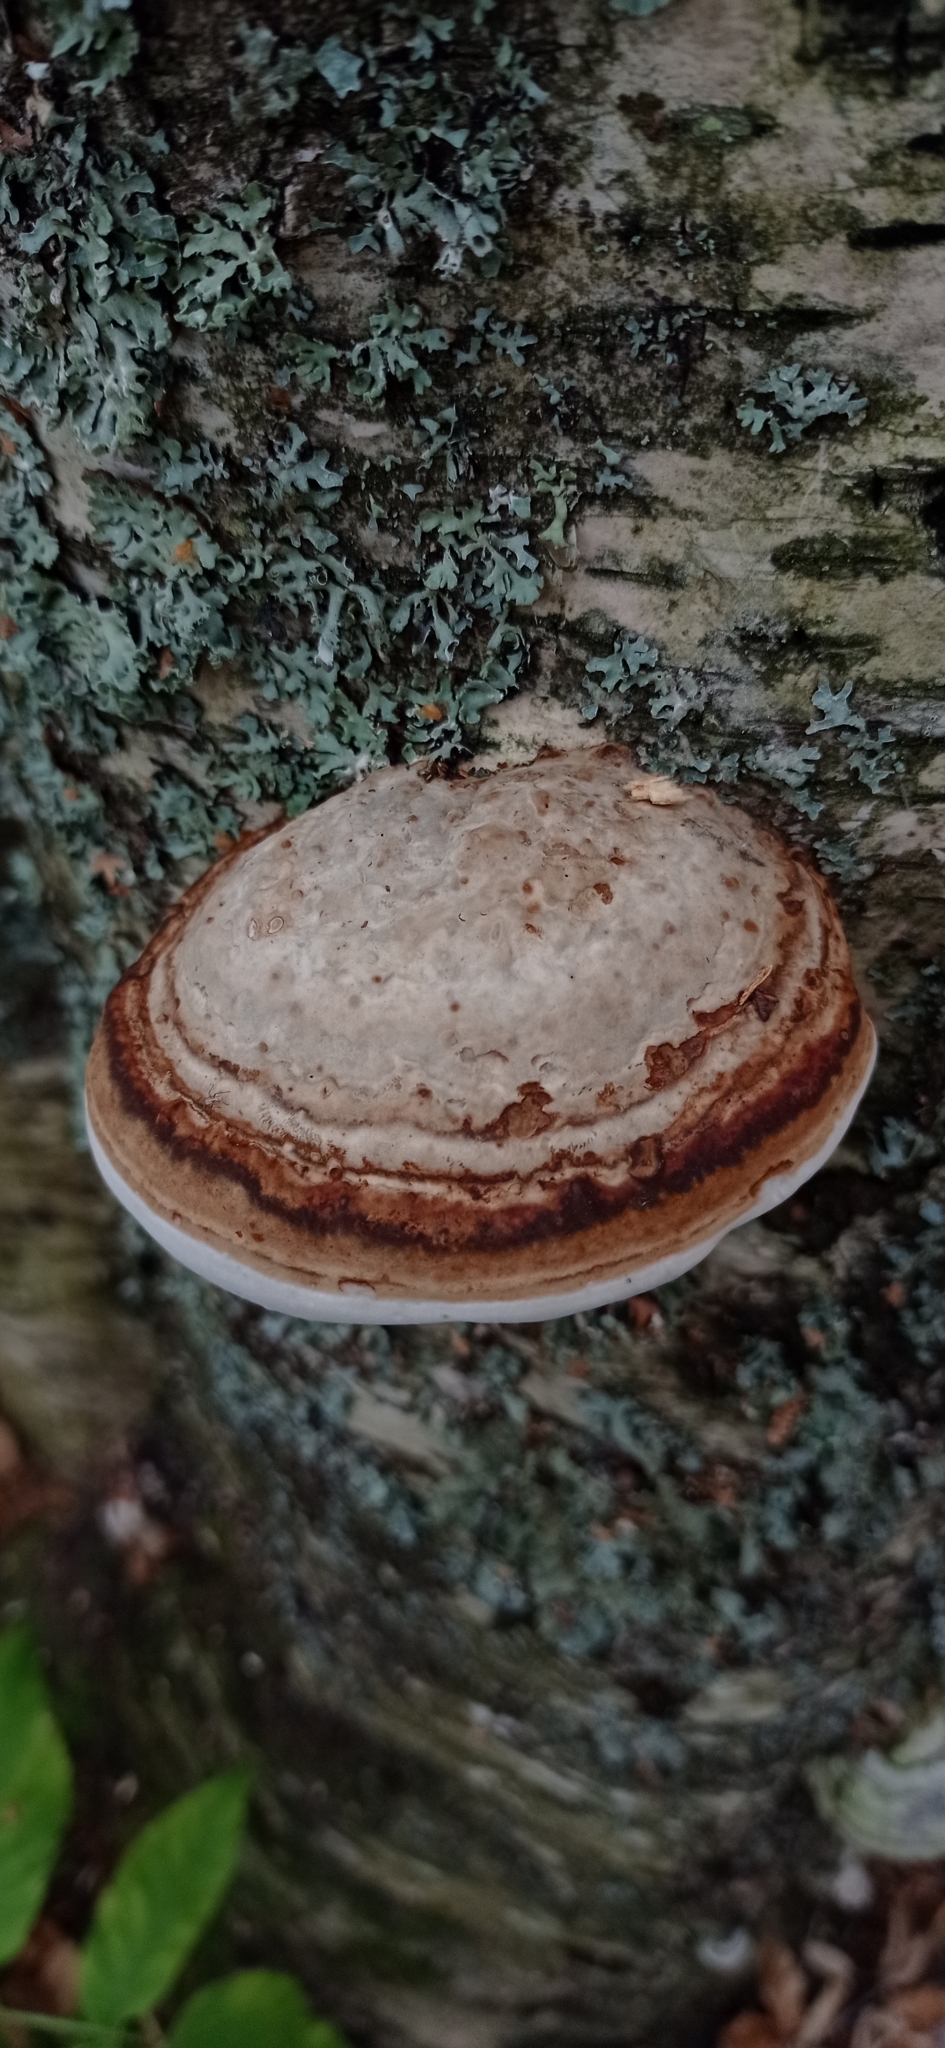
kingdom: Fungi
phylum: Basidiomycota
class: Agaricomycetes
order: Polyporales
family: Polyporaceae
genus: Fomes
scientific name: Fomes fomentarius
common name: Hoof fungus
